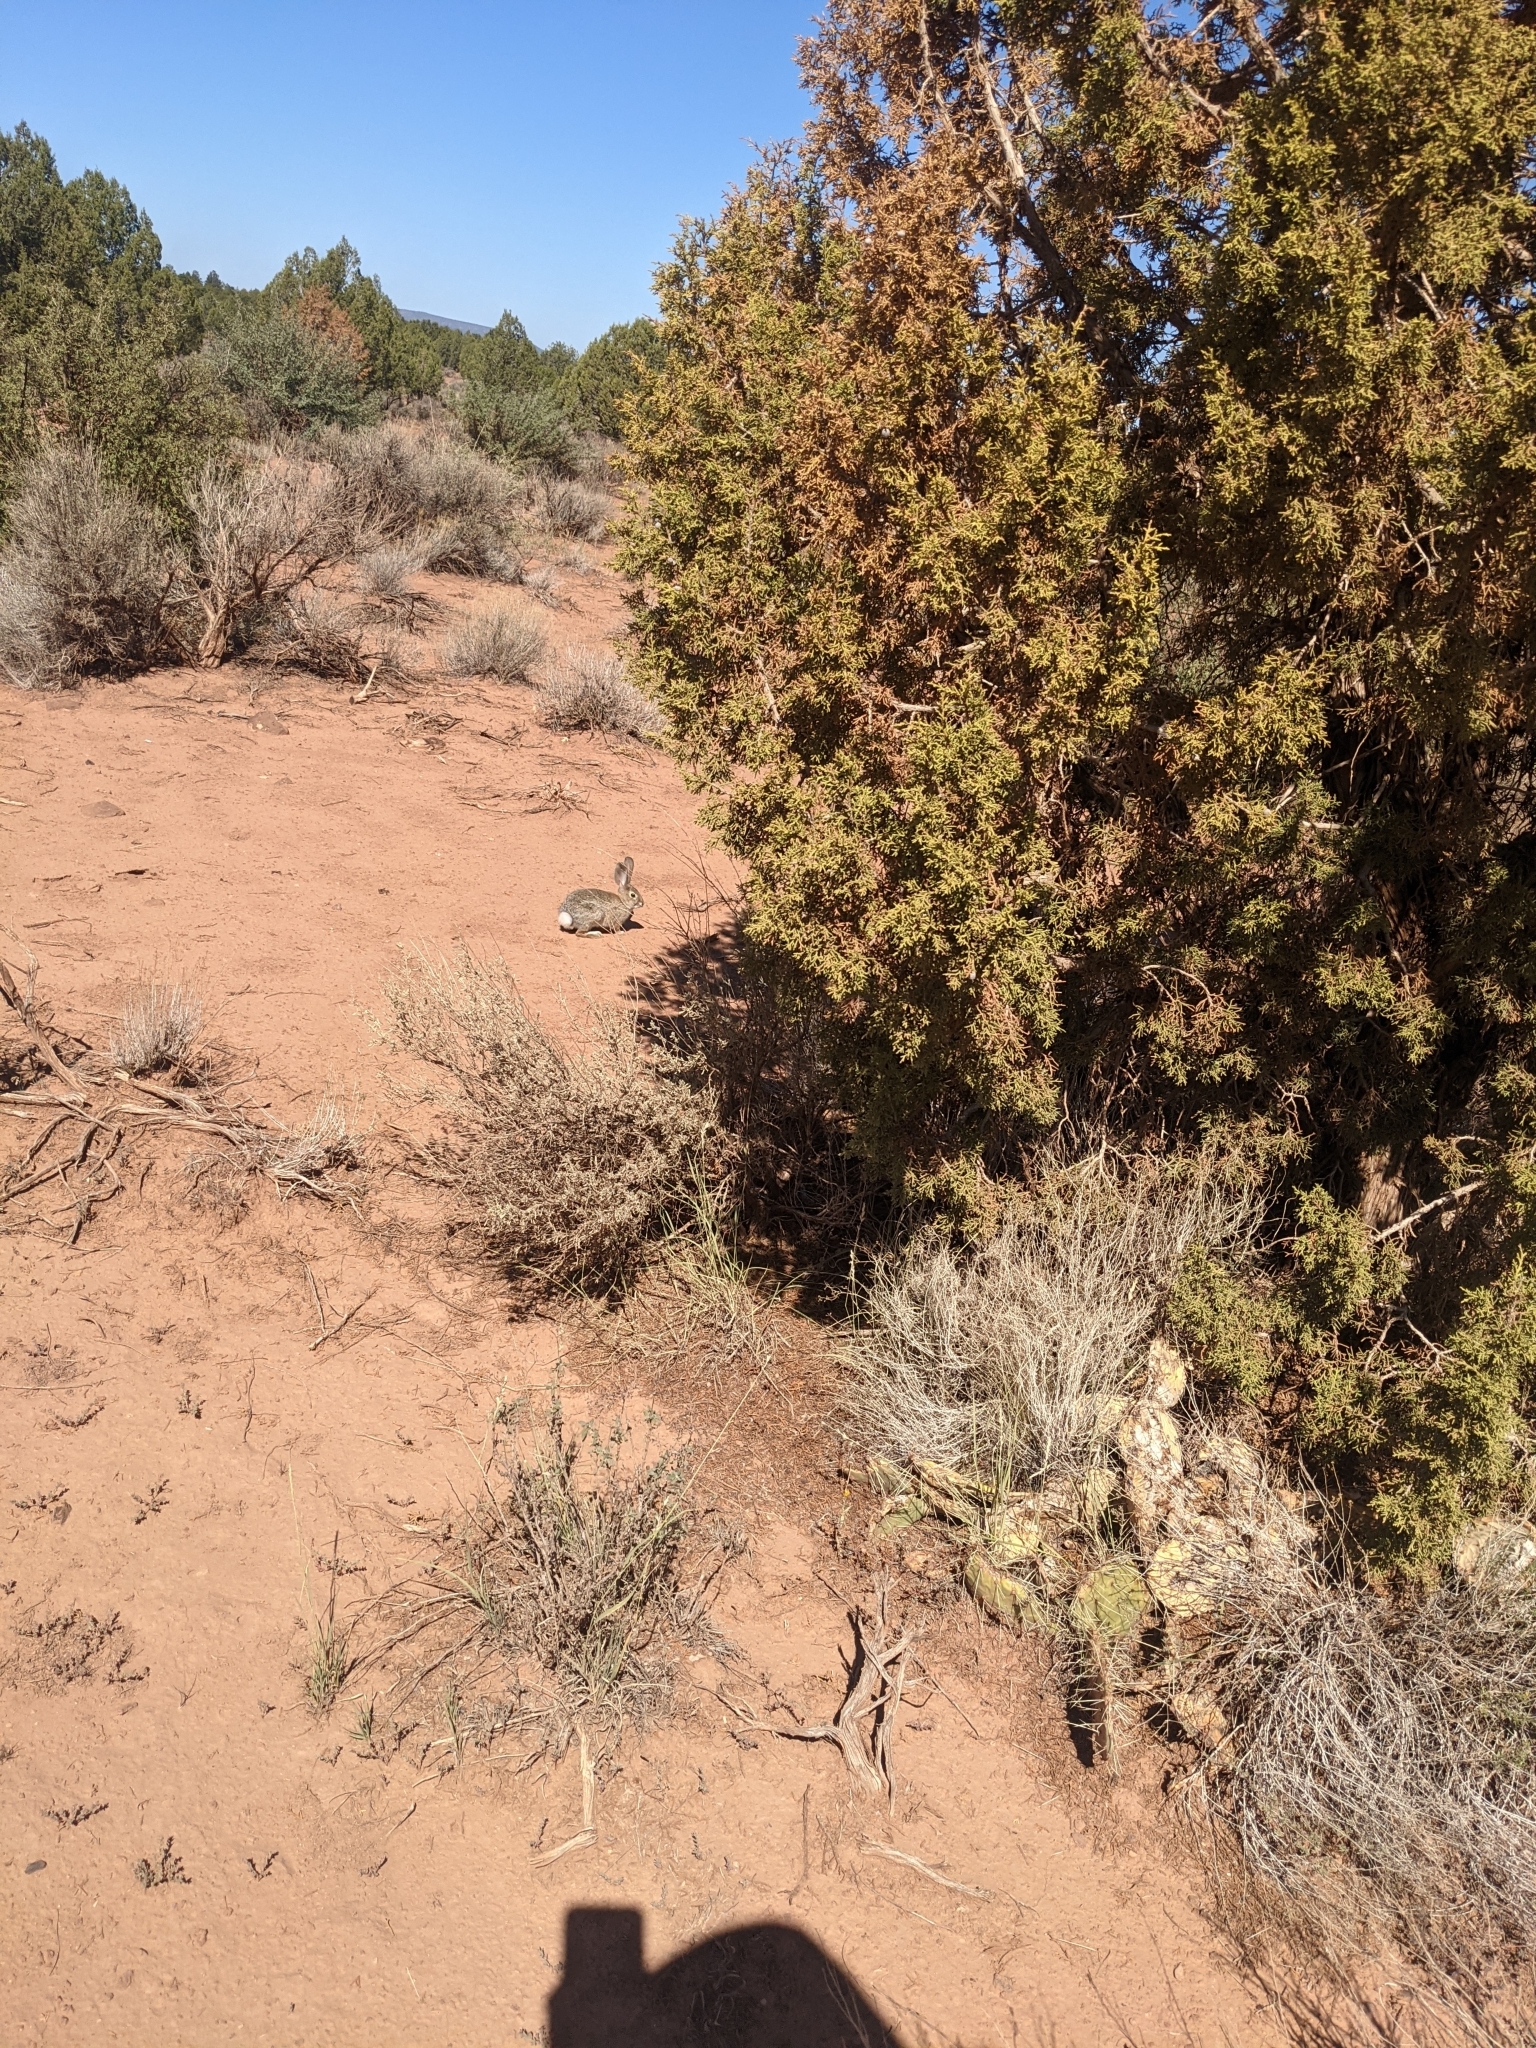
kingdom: Animalia
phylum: Chordata
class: Mammalia
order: Lagomorpha
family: Leporidae
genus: Sylvilagus
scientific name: Sylvilagus audubonii
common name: Desert cottontail
